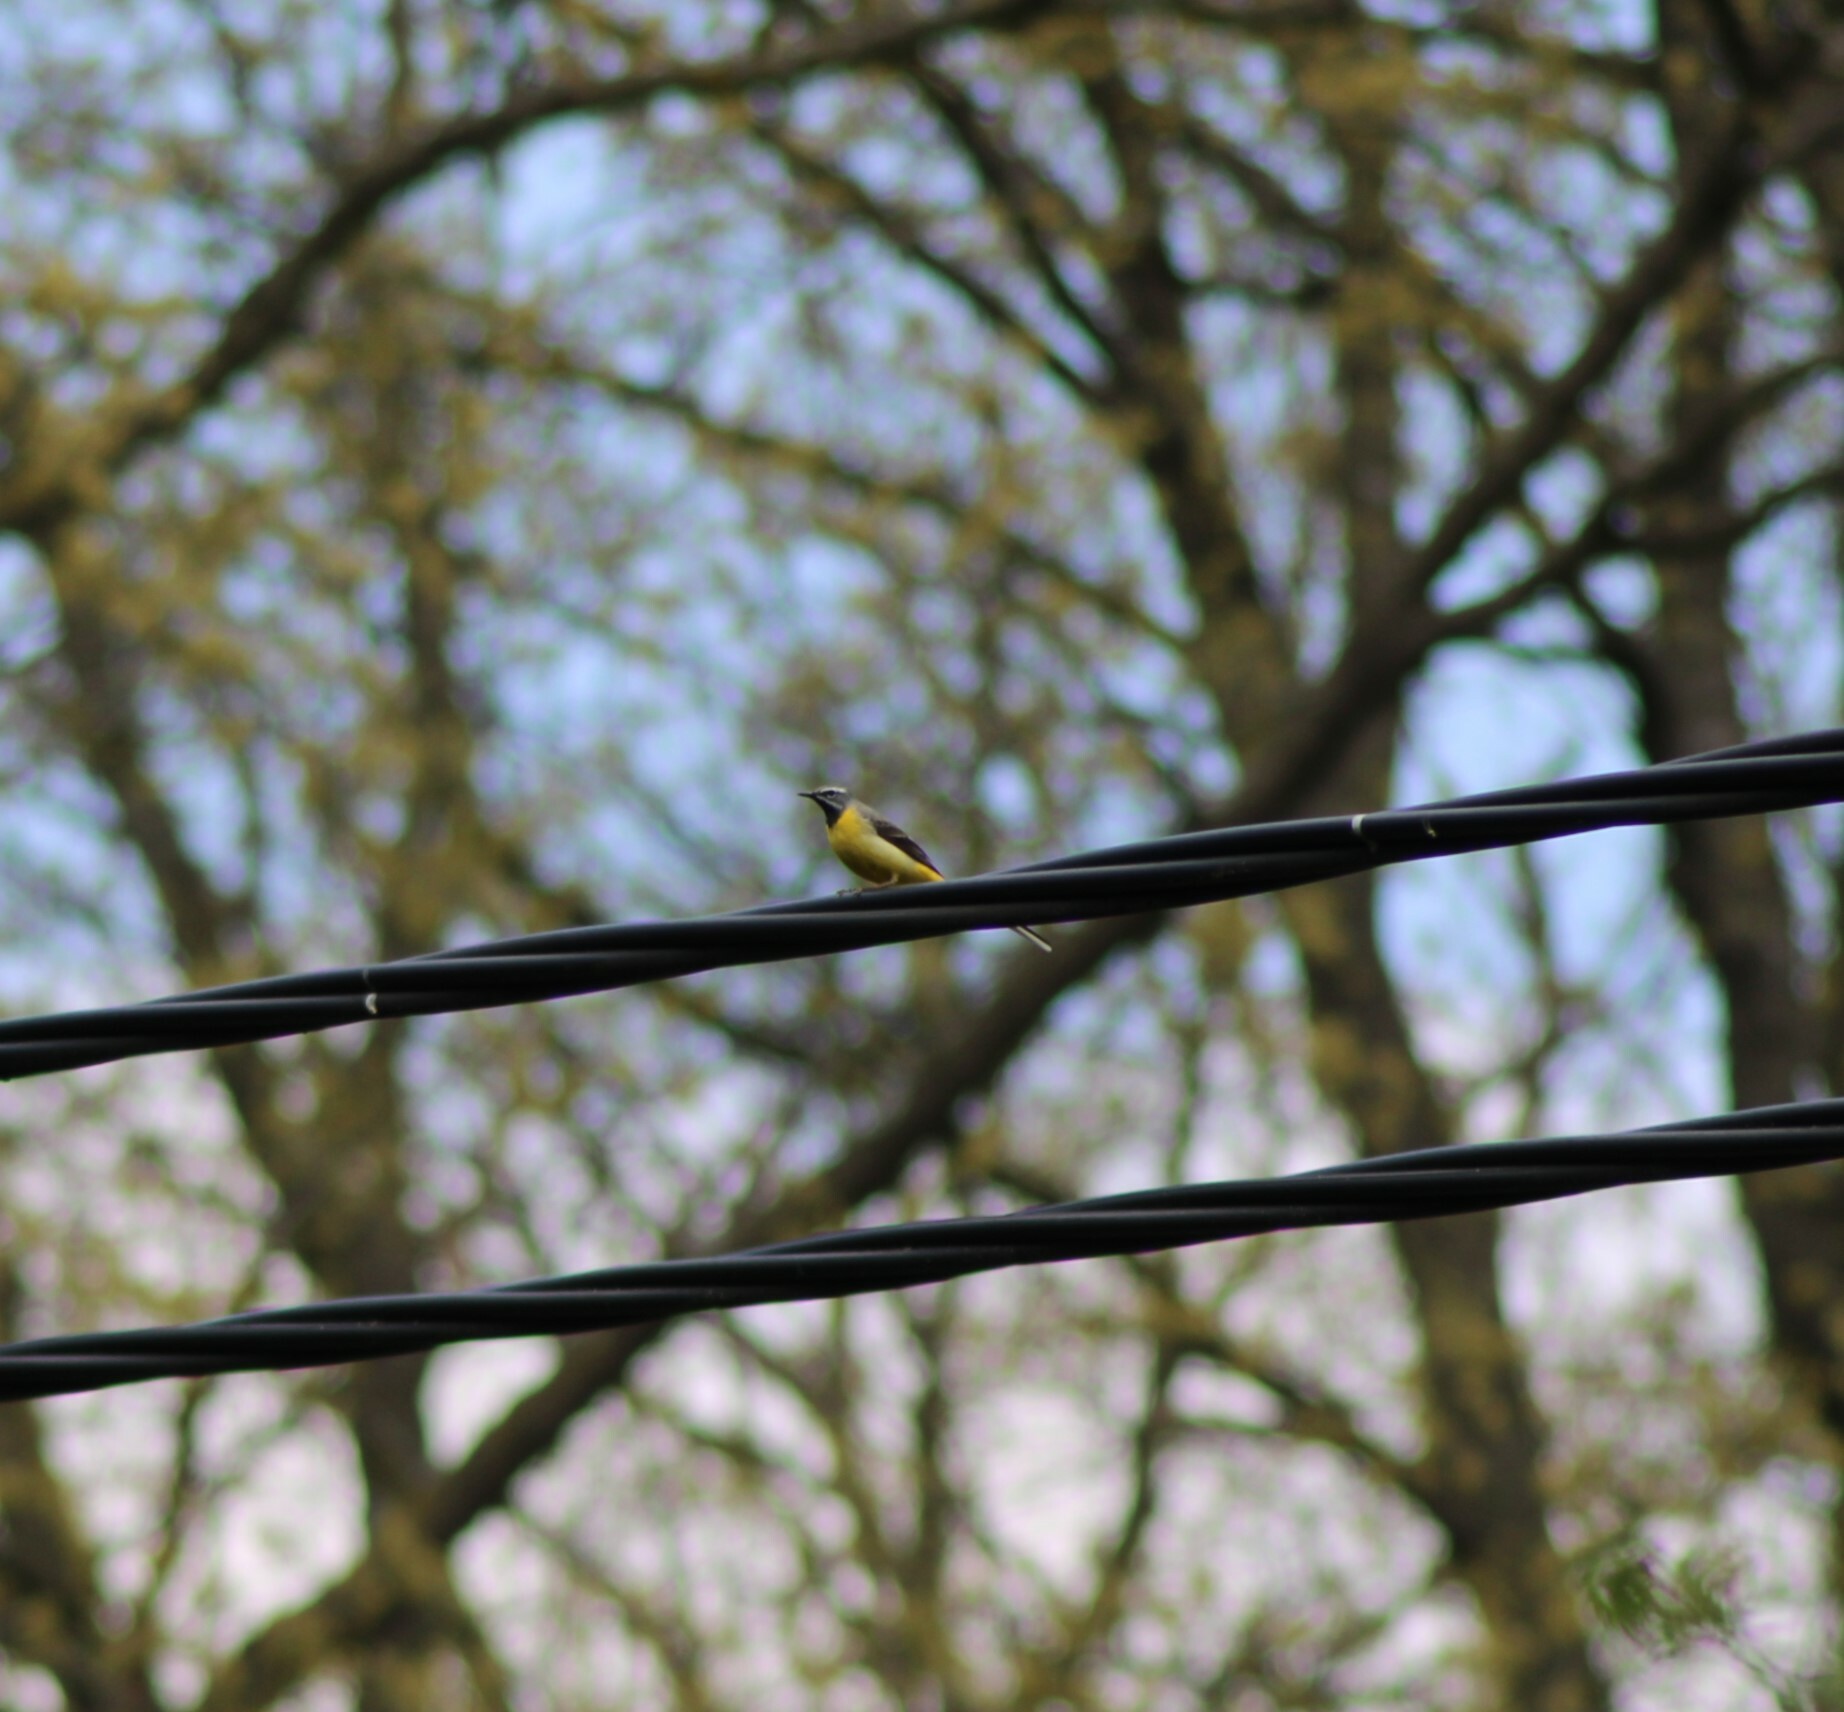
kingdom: Animalia
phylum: Chordata
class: Aves
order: Passeriformes
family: Motacillidae
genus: Motacilla
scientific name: Motacilla cinerea
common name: Grey wagtail
